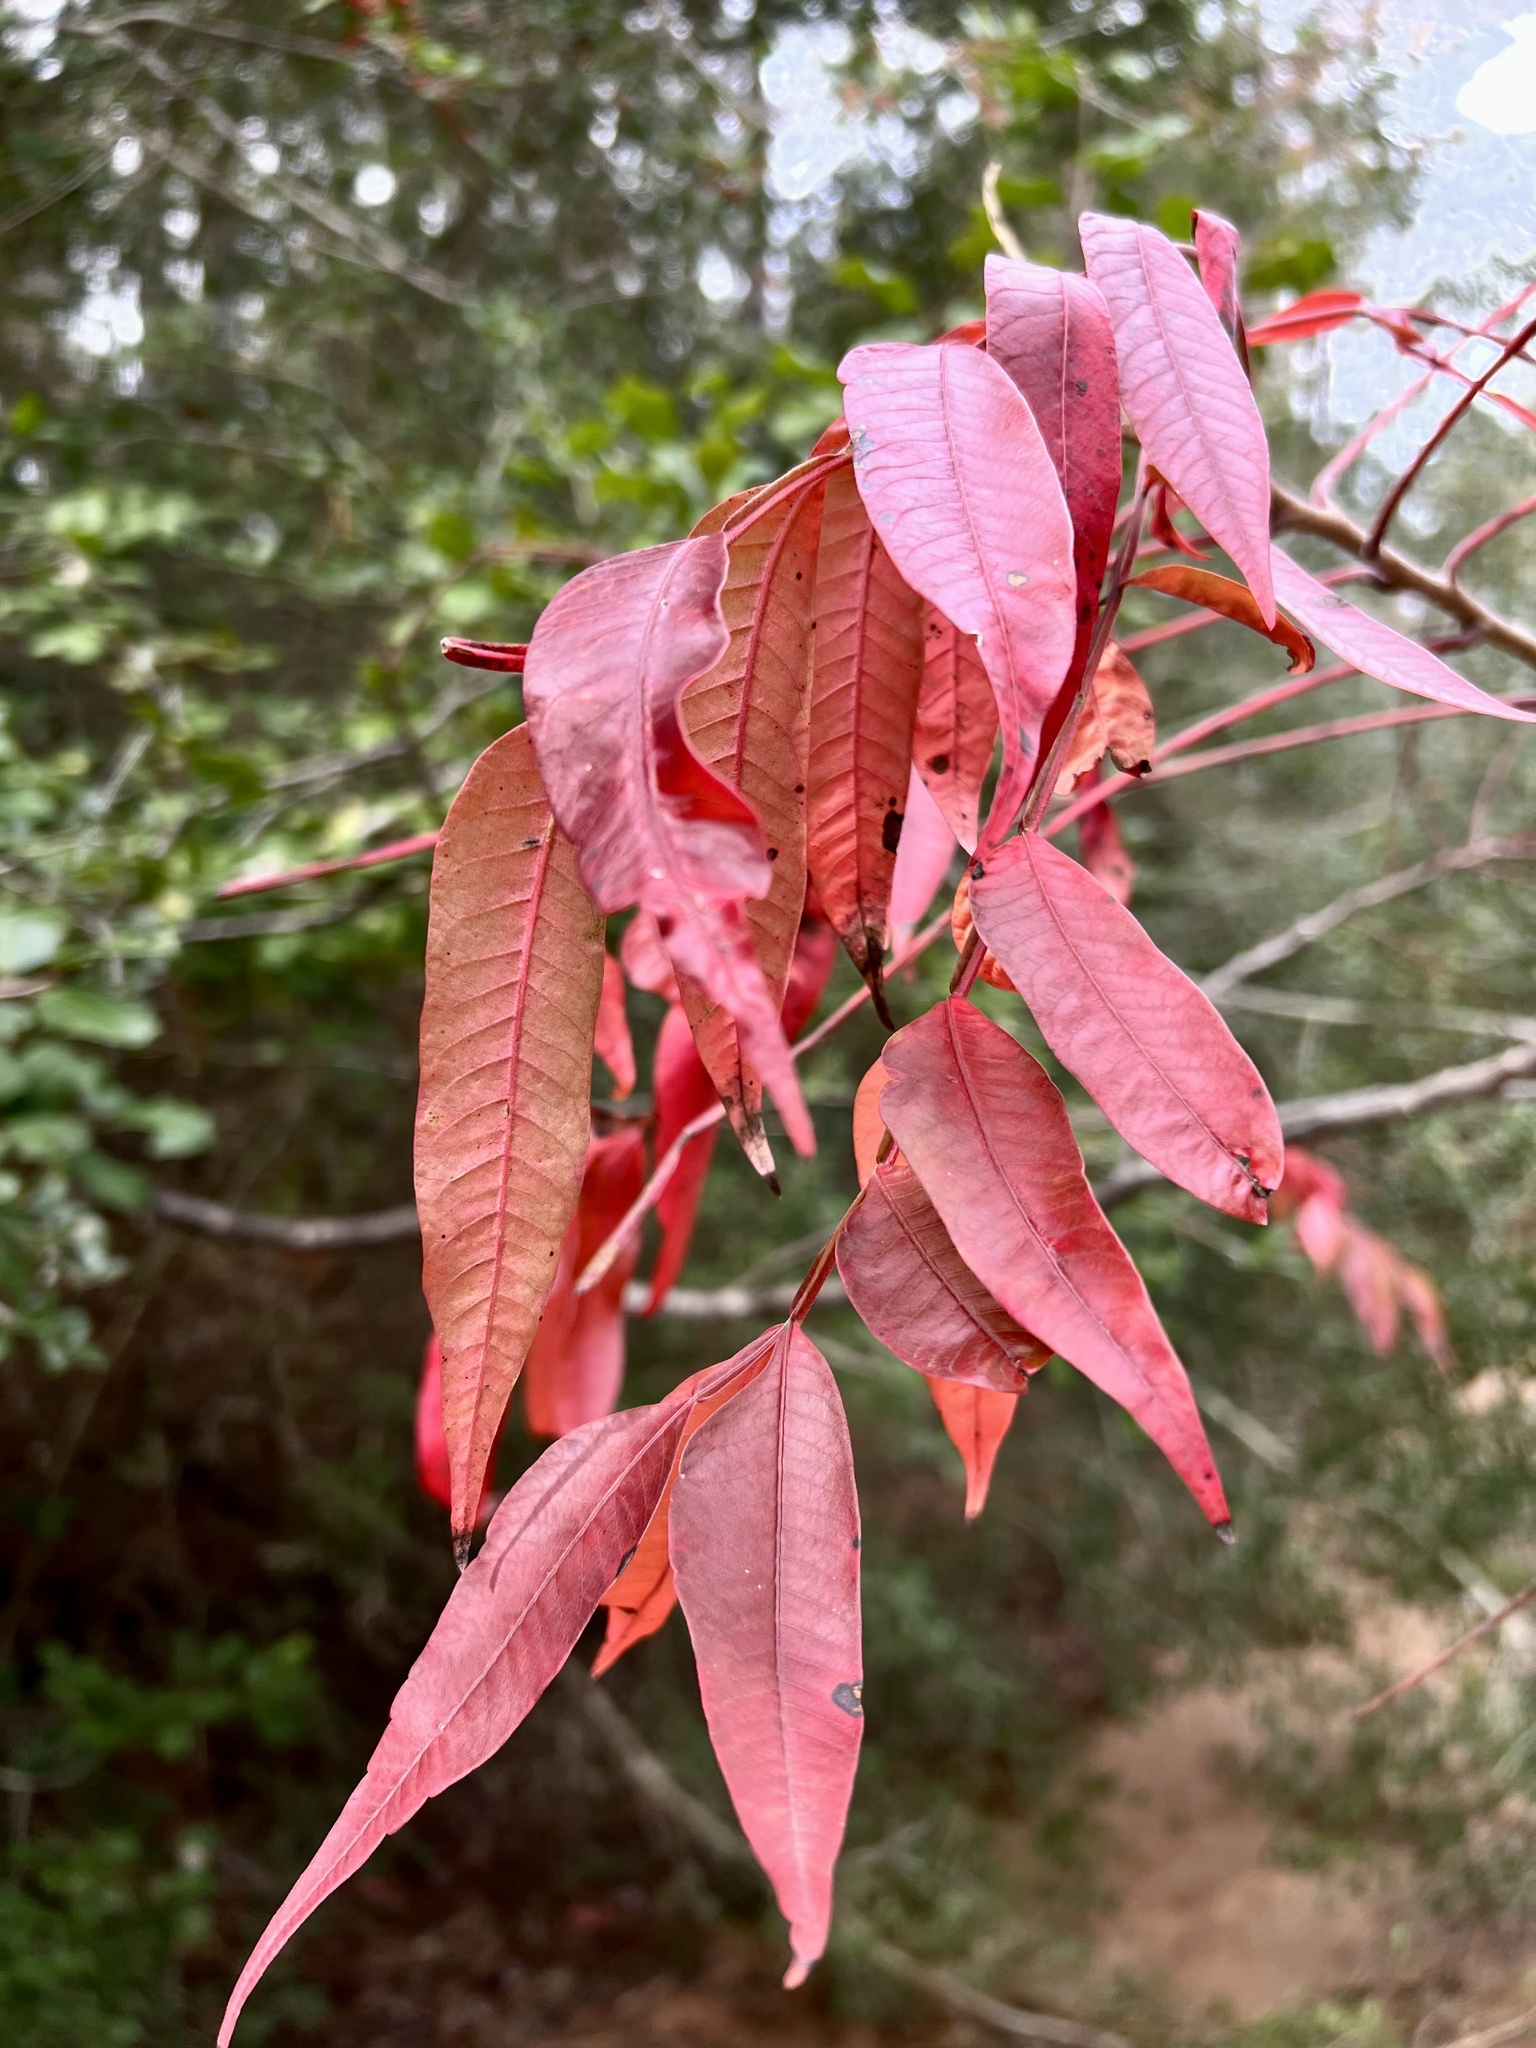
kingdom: Plantae
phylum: Tracheophyta
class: Magnoliopsida
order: Sapindales
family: Anacardiaceae
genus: Rhus
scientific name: Rhus copallina
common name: Shining sumac
